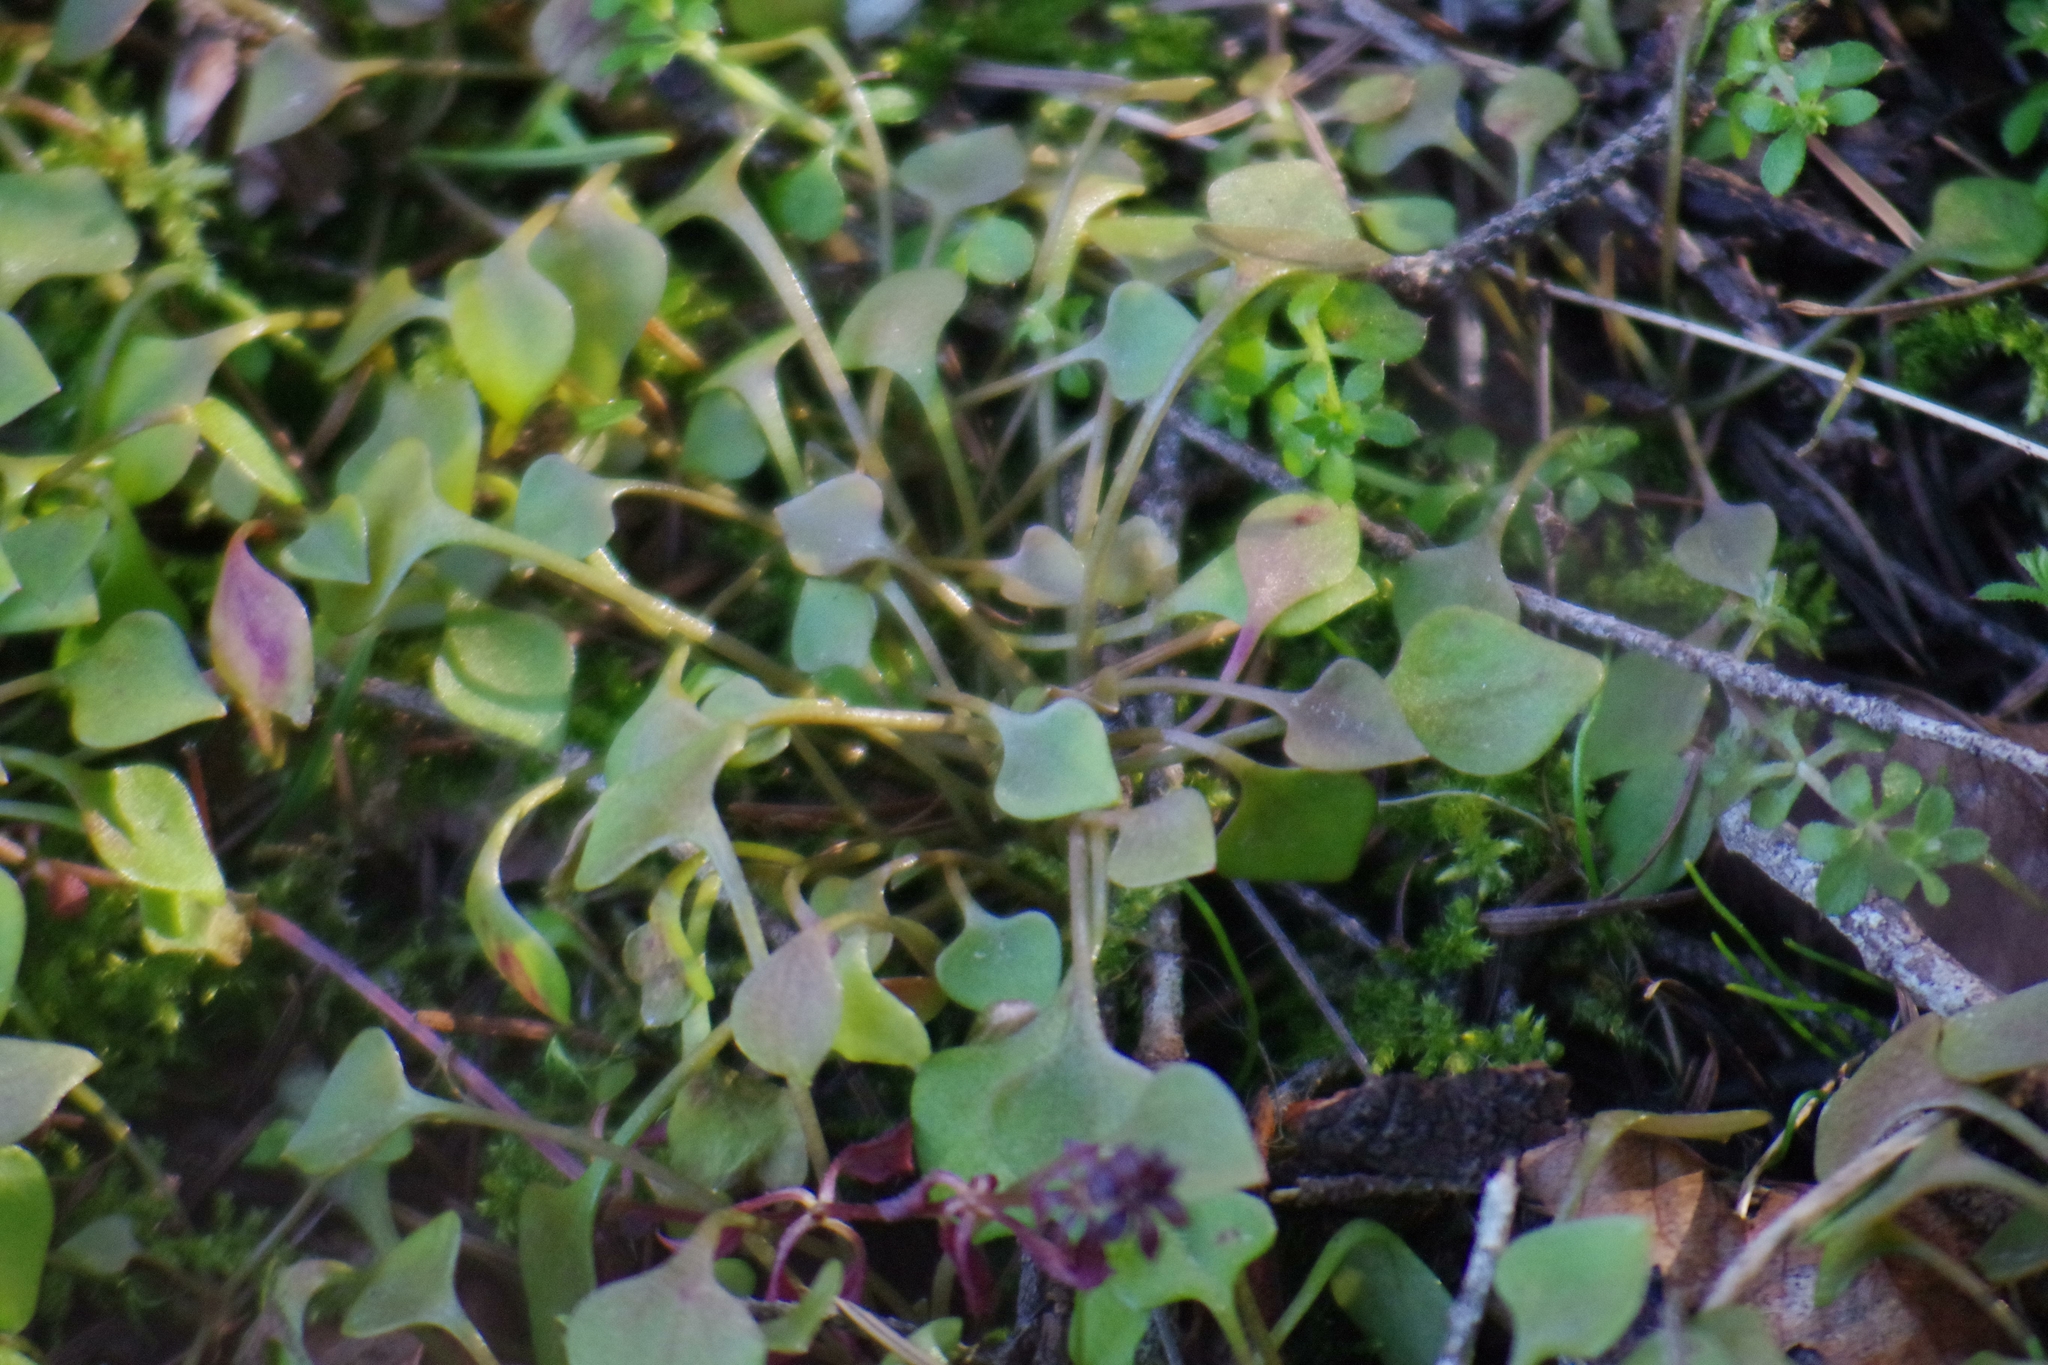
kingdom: Plantae
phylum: Tracheophyta
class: Magnoliopsida
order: Caryophyllales
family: Montiaceae
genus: Claytonia
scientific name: Claytonia perfoliata
